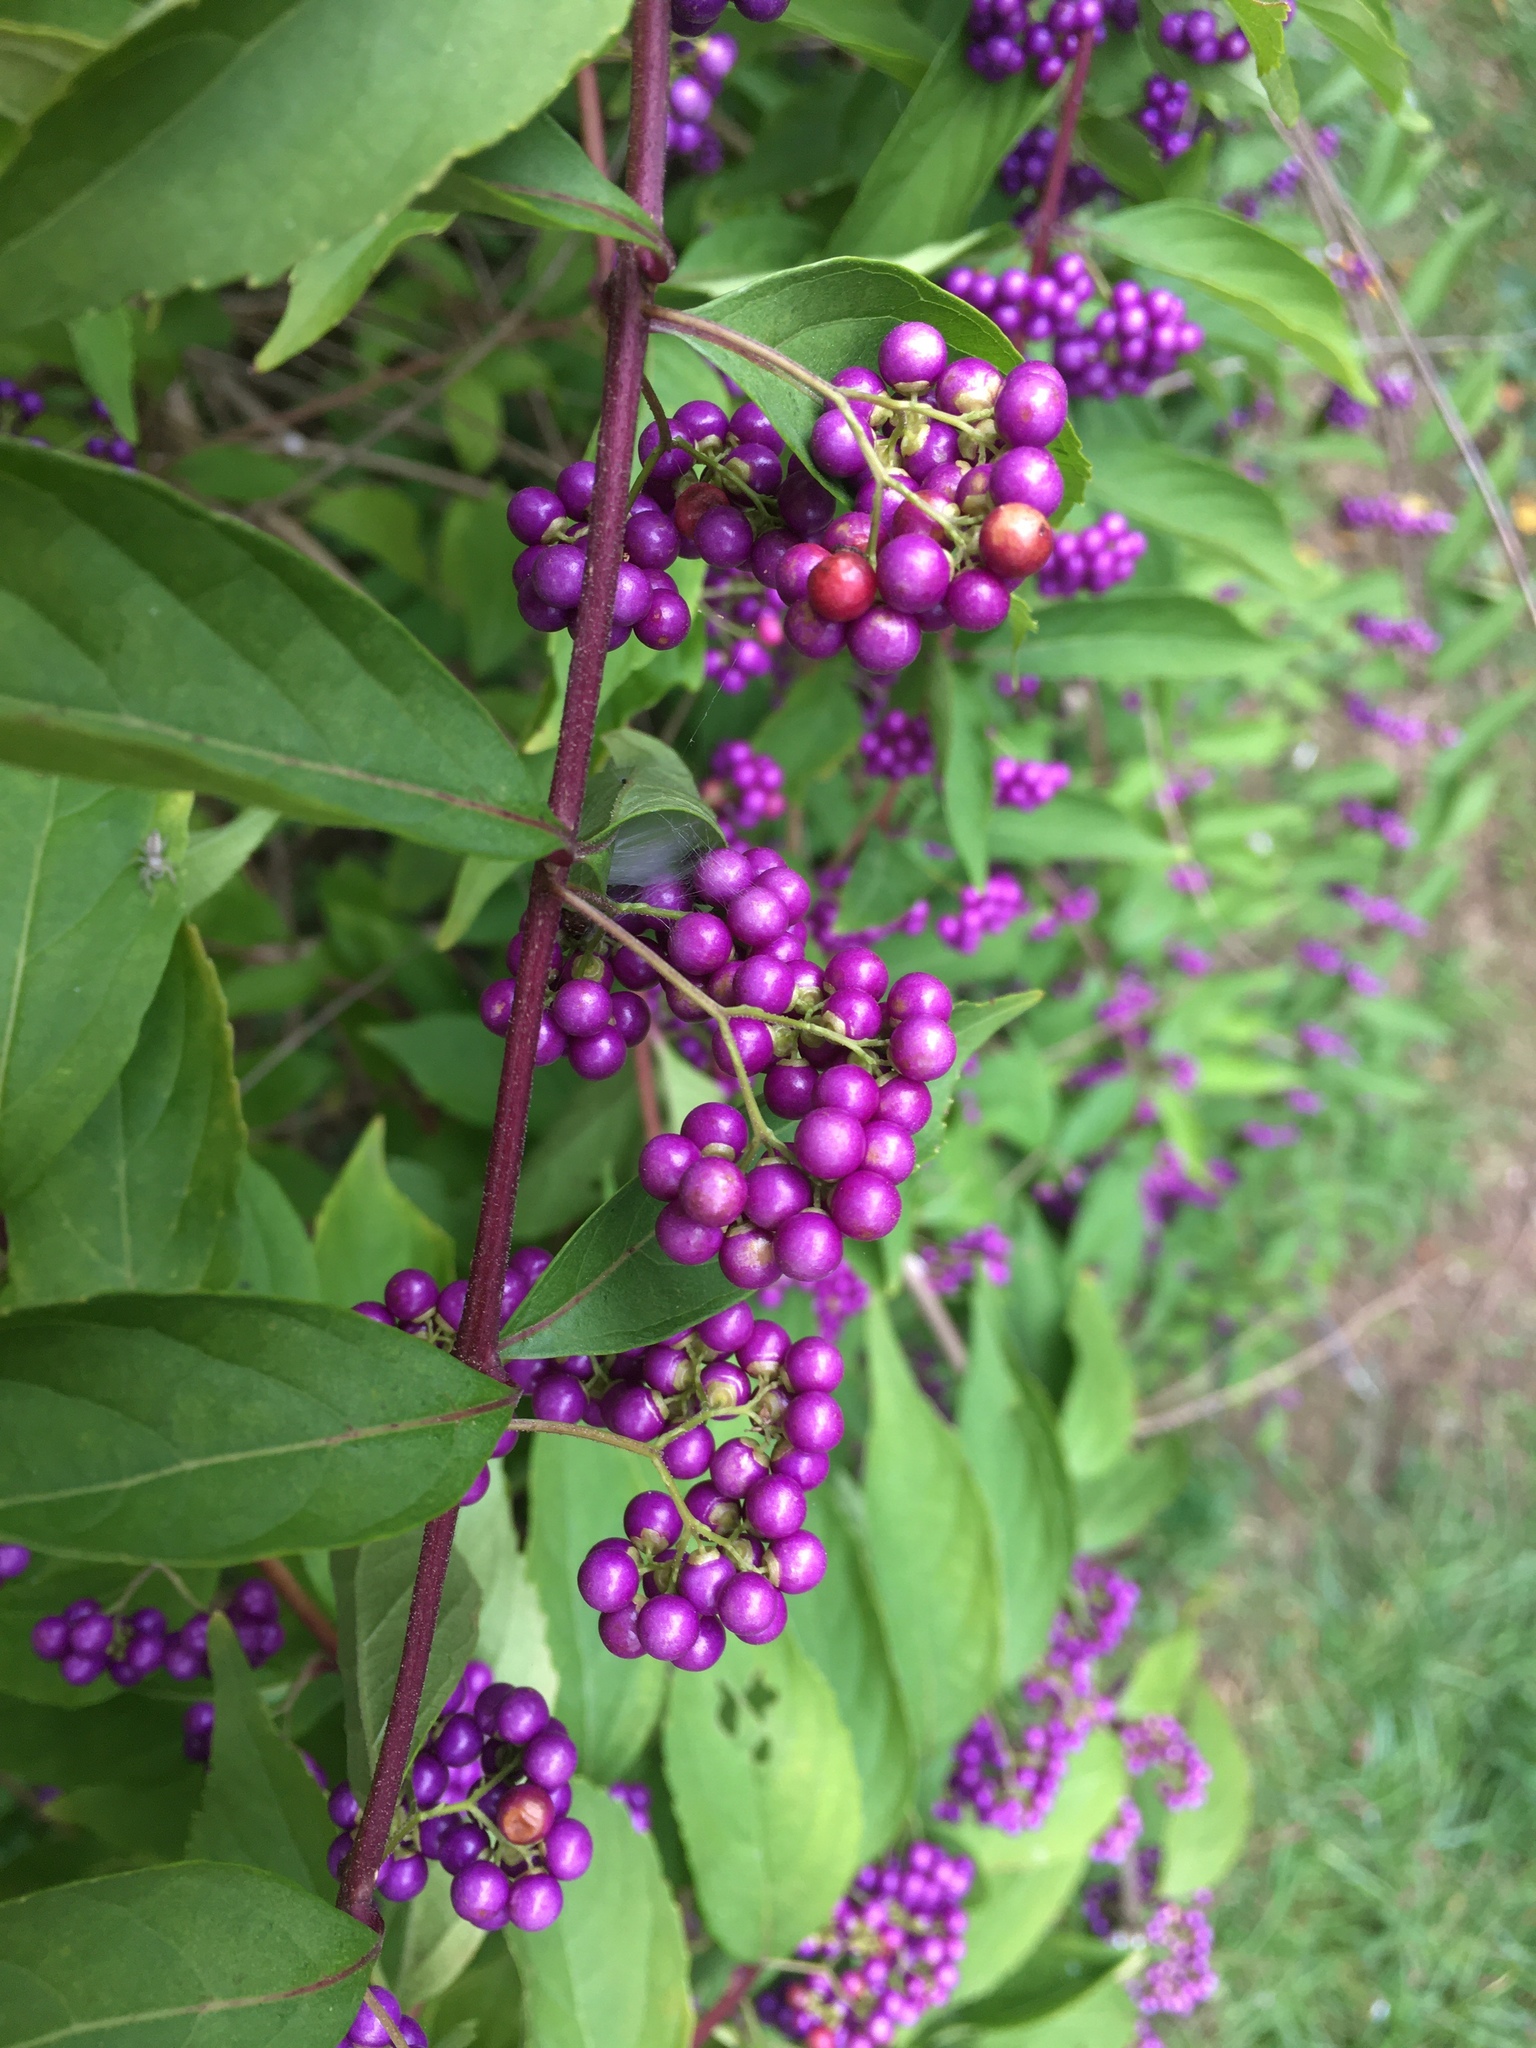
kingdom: Plantae
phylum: Tracheophyta
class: Magnoliopsida
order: Lamiales
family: Lamiaceae
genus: Callicarpa
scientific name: Callicarpa dichotoma
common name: Purple beauty-berry
